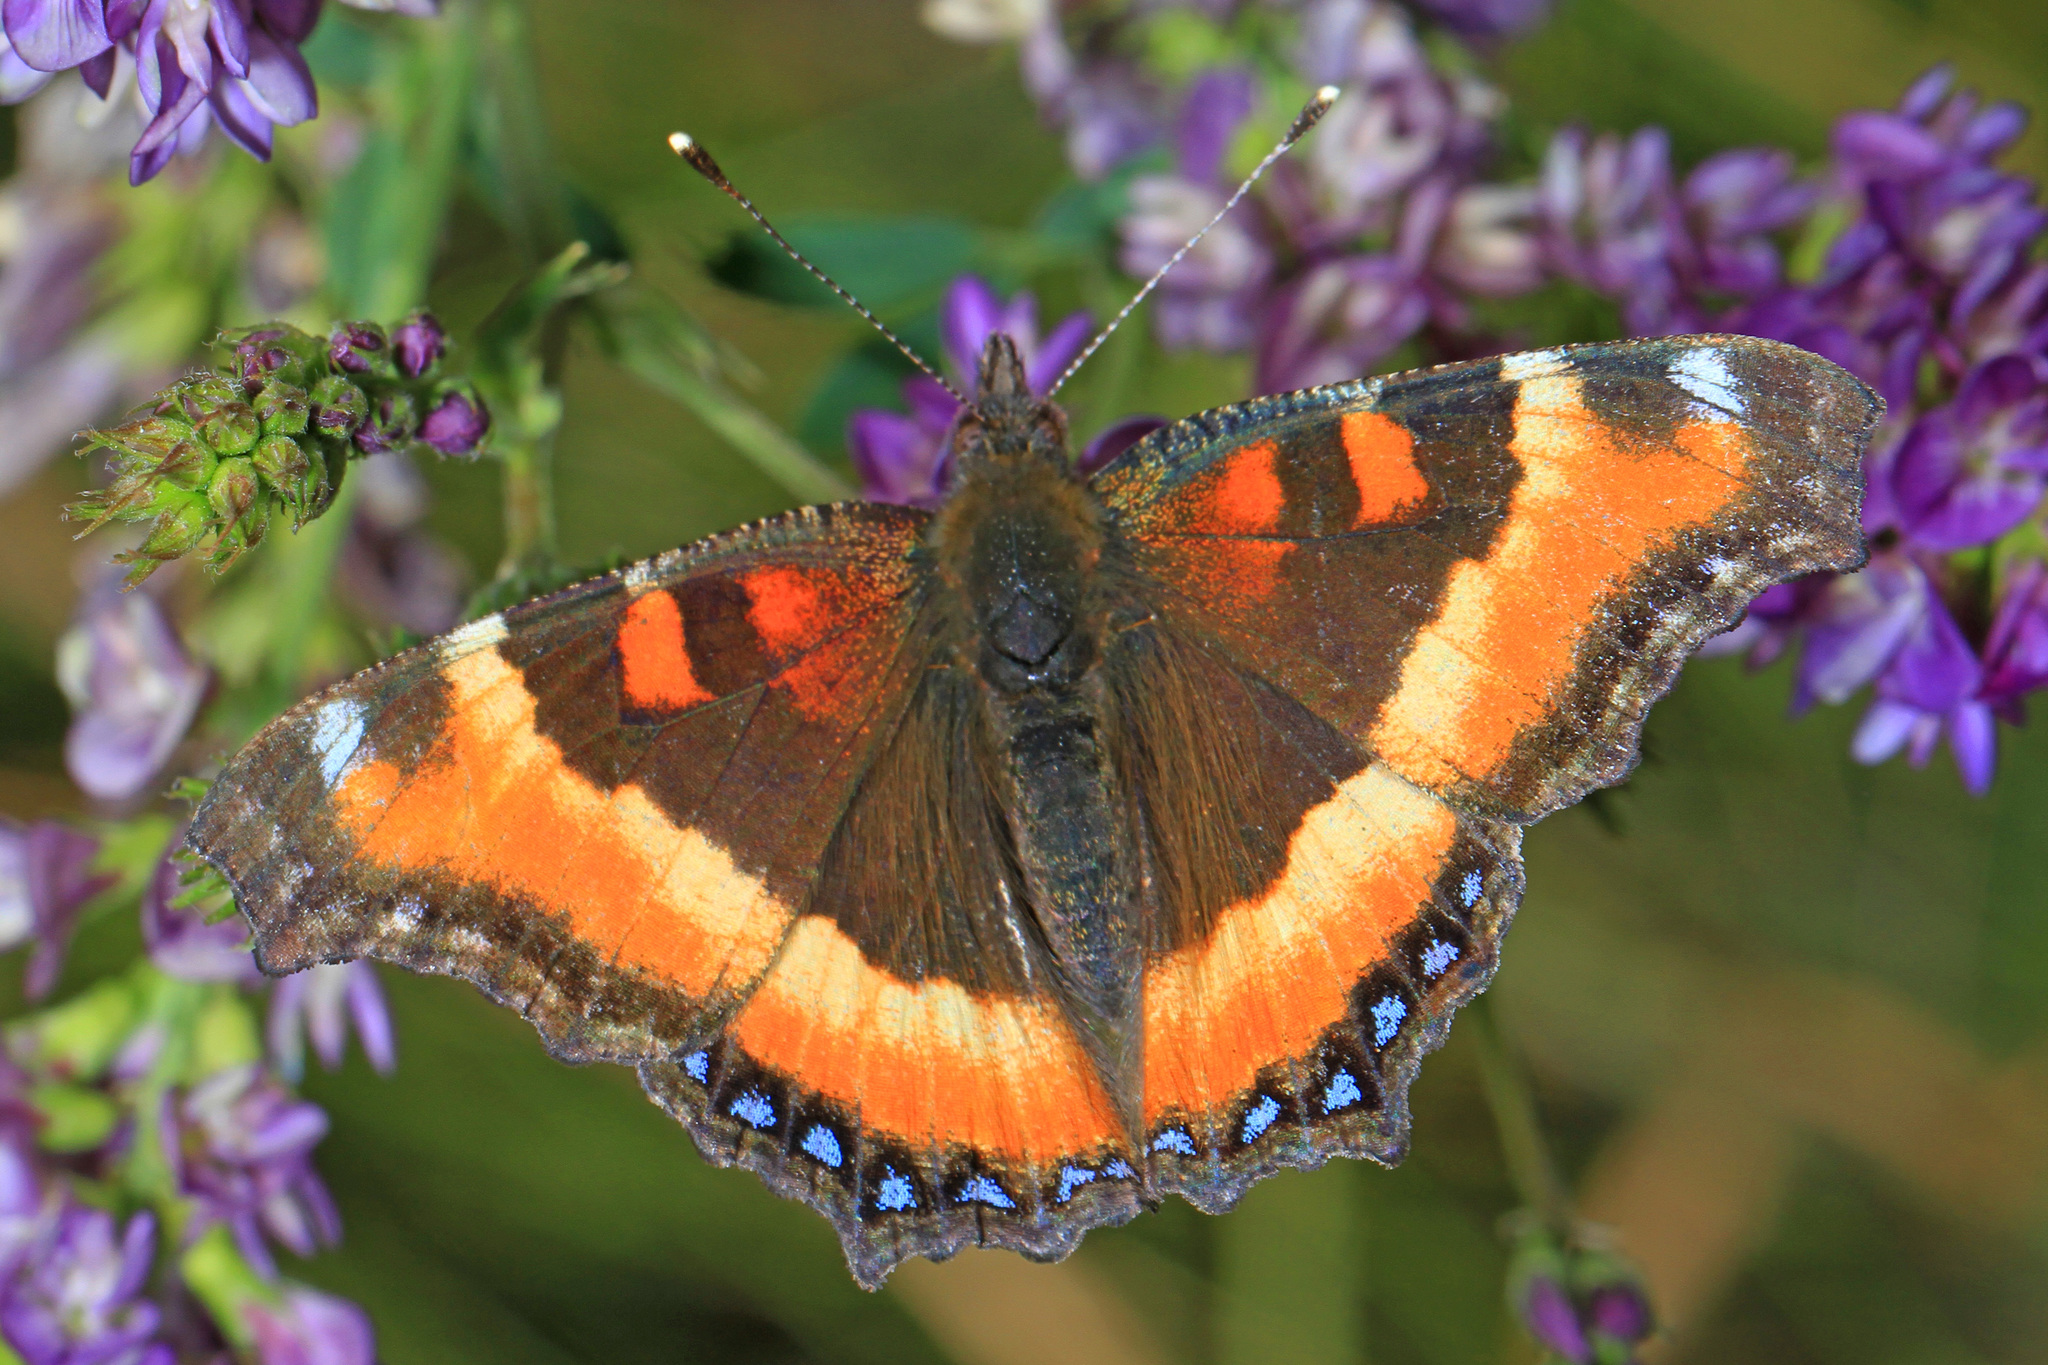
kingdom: Animalia
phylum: Arthropoda
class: Insecta
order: Lepidoptera
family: Nymphalidae
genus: Aglais
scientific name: Aglais milberti
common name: Milbert's tortoiseshell
